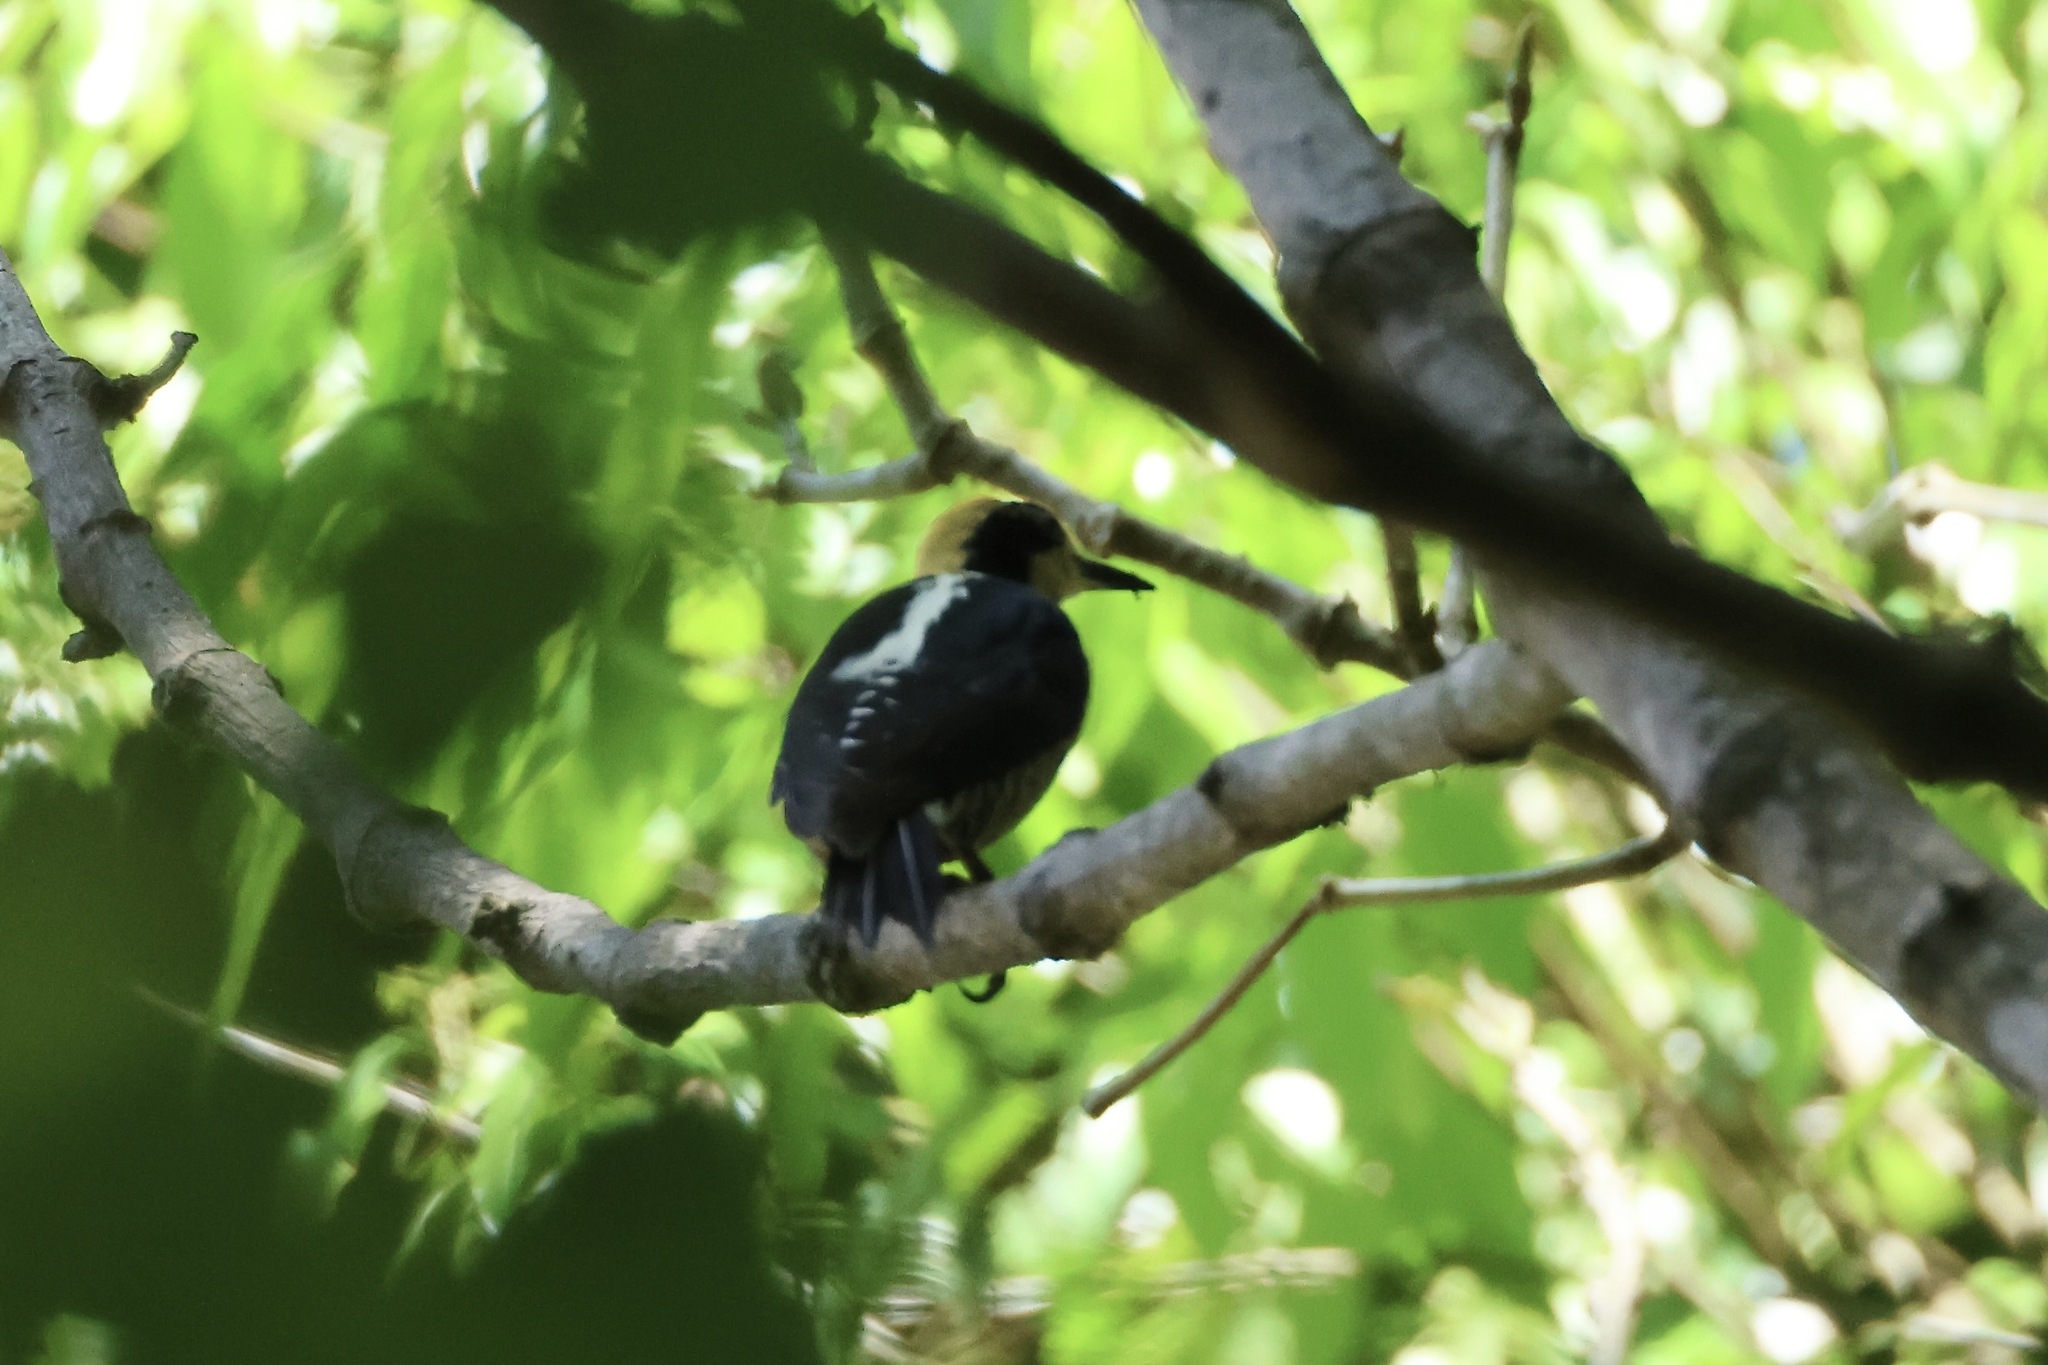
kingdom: Animalia
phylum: Chordata
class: Aves
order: Piciformes
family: Picidae
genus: Melanerpes
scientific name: Melanerpes chrysauchen
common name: Golden-naped woodpecker
